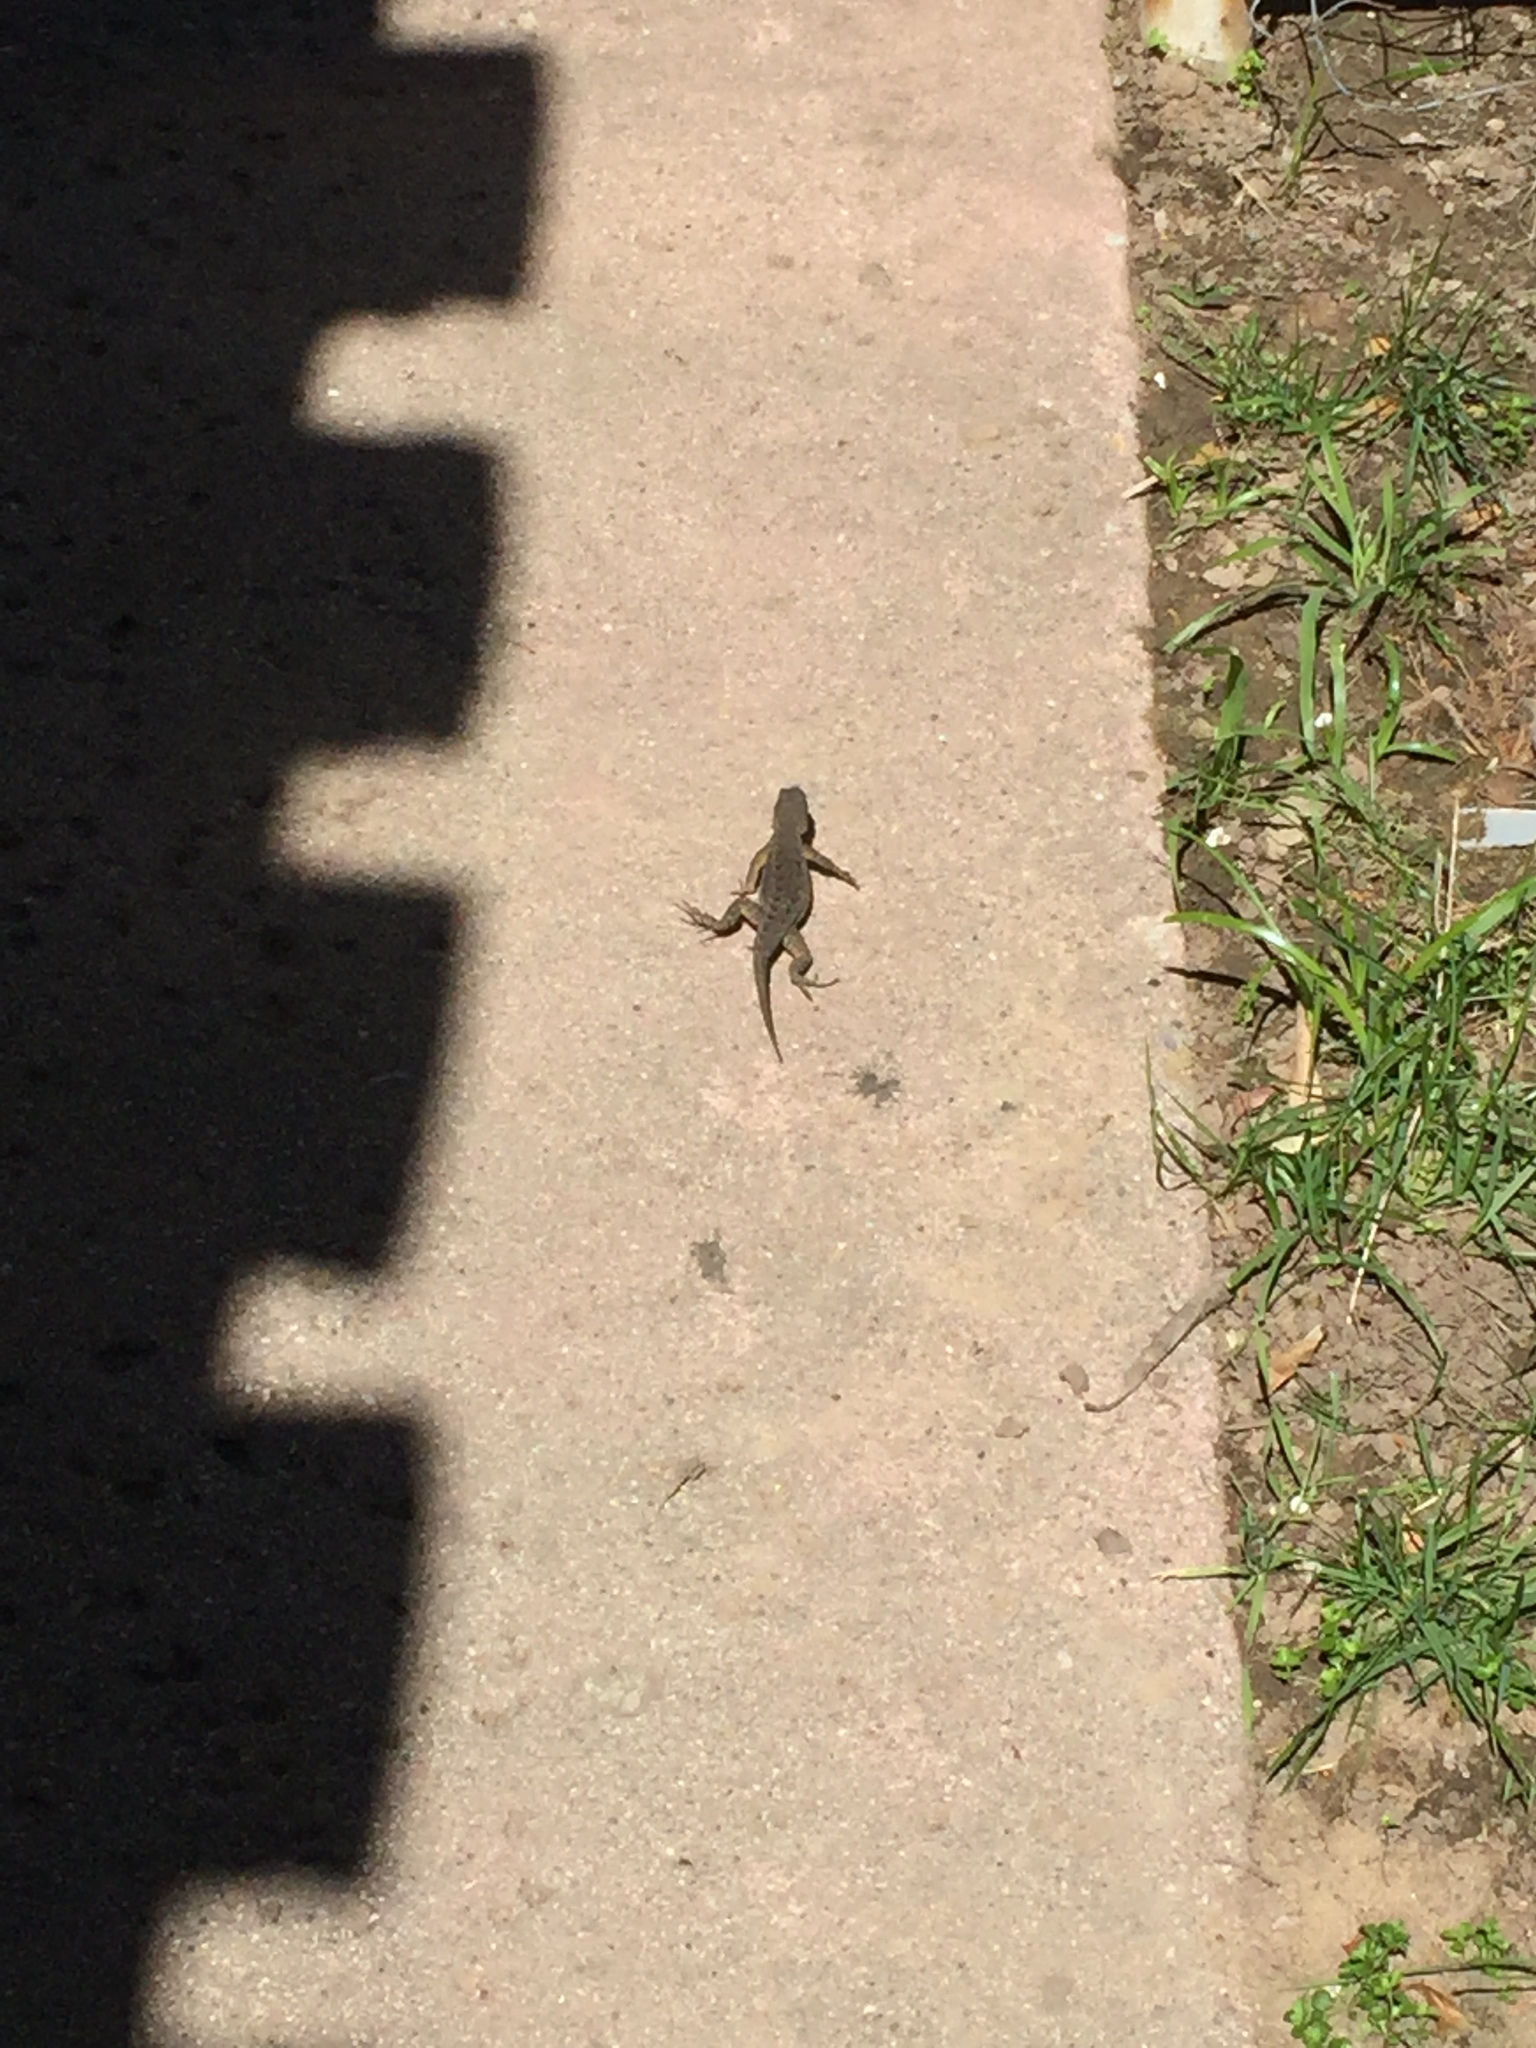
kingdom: Animalia
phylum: Chordata
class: Squamata
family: Phrynosomatidae
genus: Sceloporus
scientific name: Sceloporus occidentalis
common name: Western fence lizard
